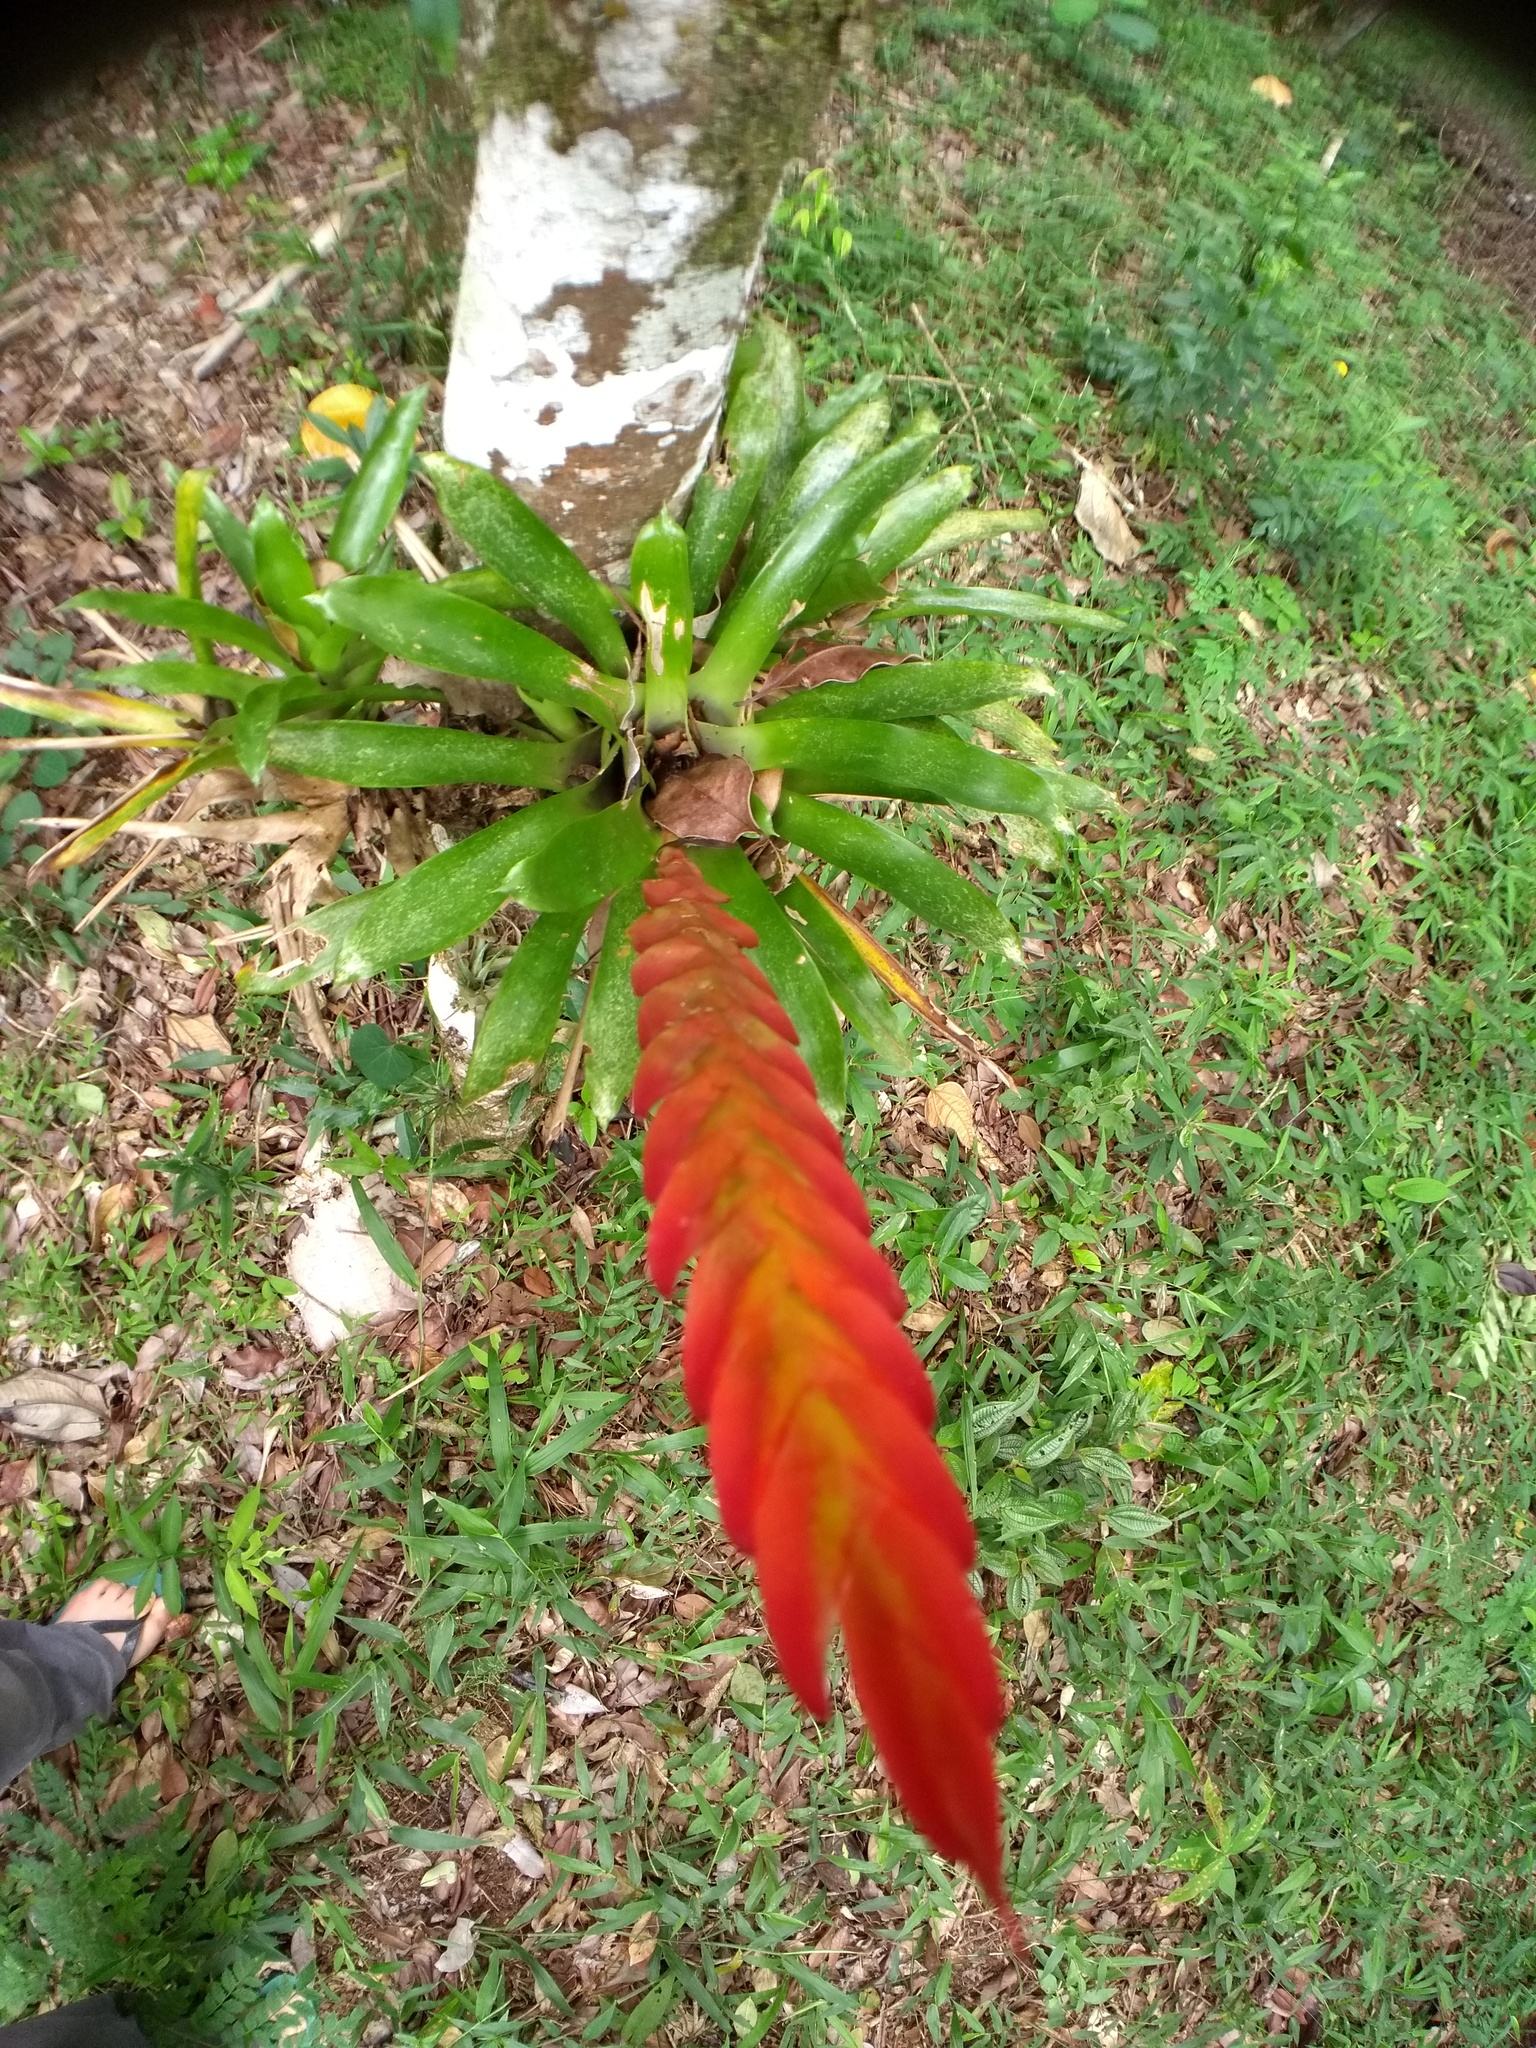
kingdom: Plantae
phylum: Tracheophyta
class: Liliopsida
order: Poales
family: Bromeliaceae
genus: Vriesea
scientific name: Vriesea incurvata
